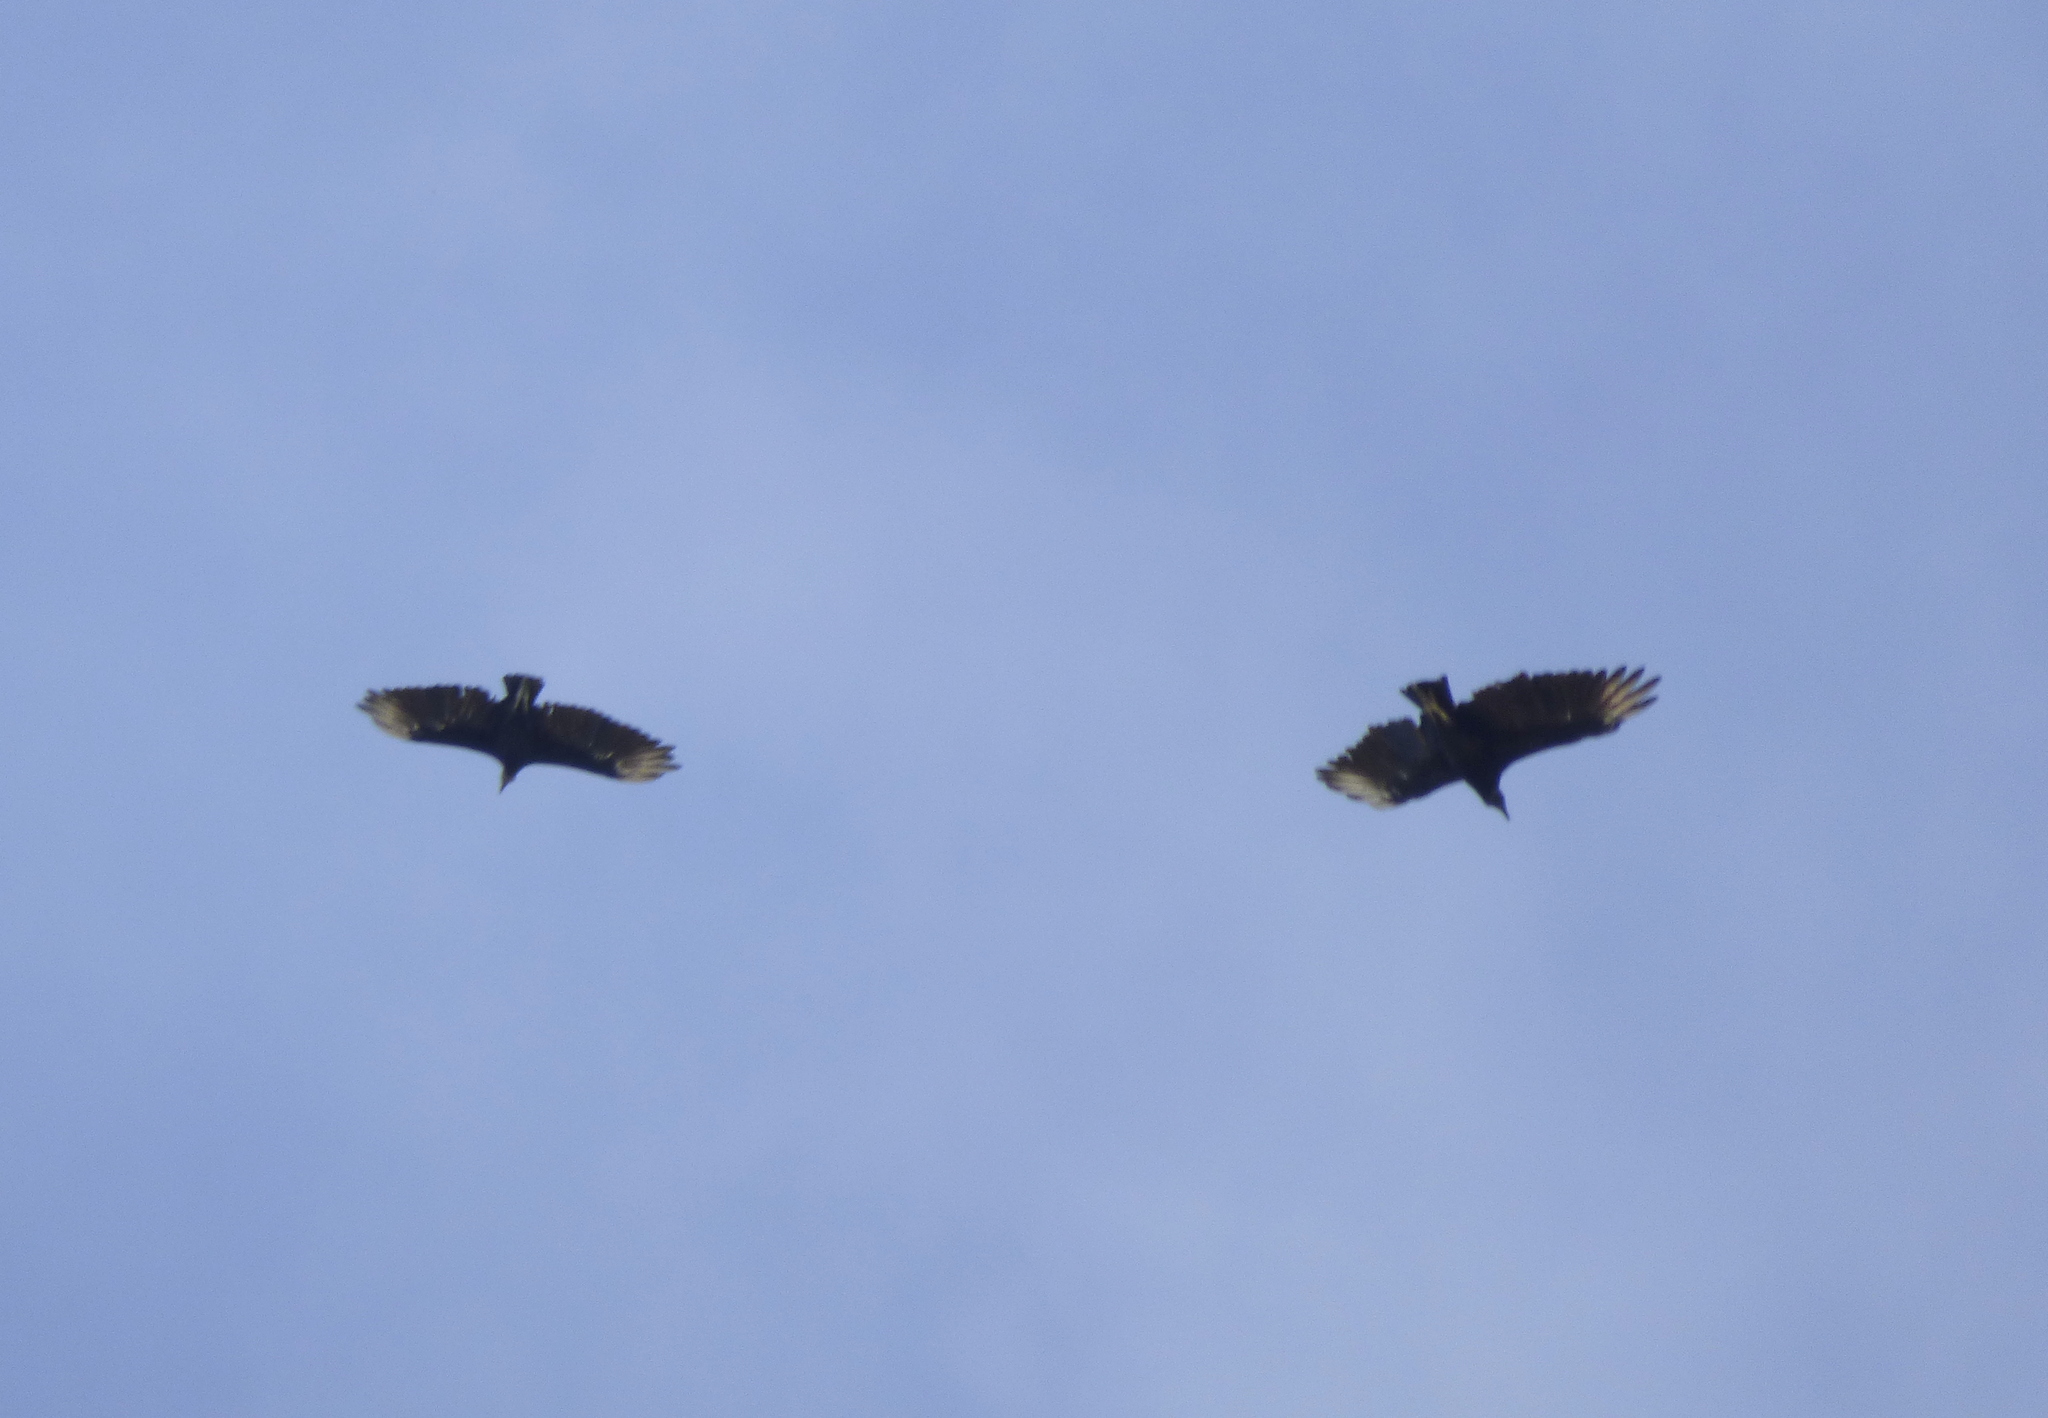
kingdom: Animalia
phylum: Chordata
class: Aves
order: Accipitriformes
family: Cathartidae
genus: Coragyps
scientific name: Coragyps atratus
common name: Black vulture
